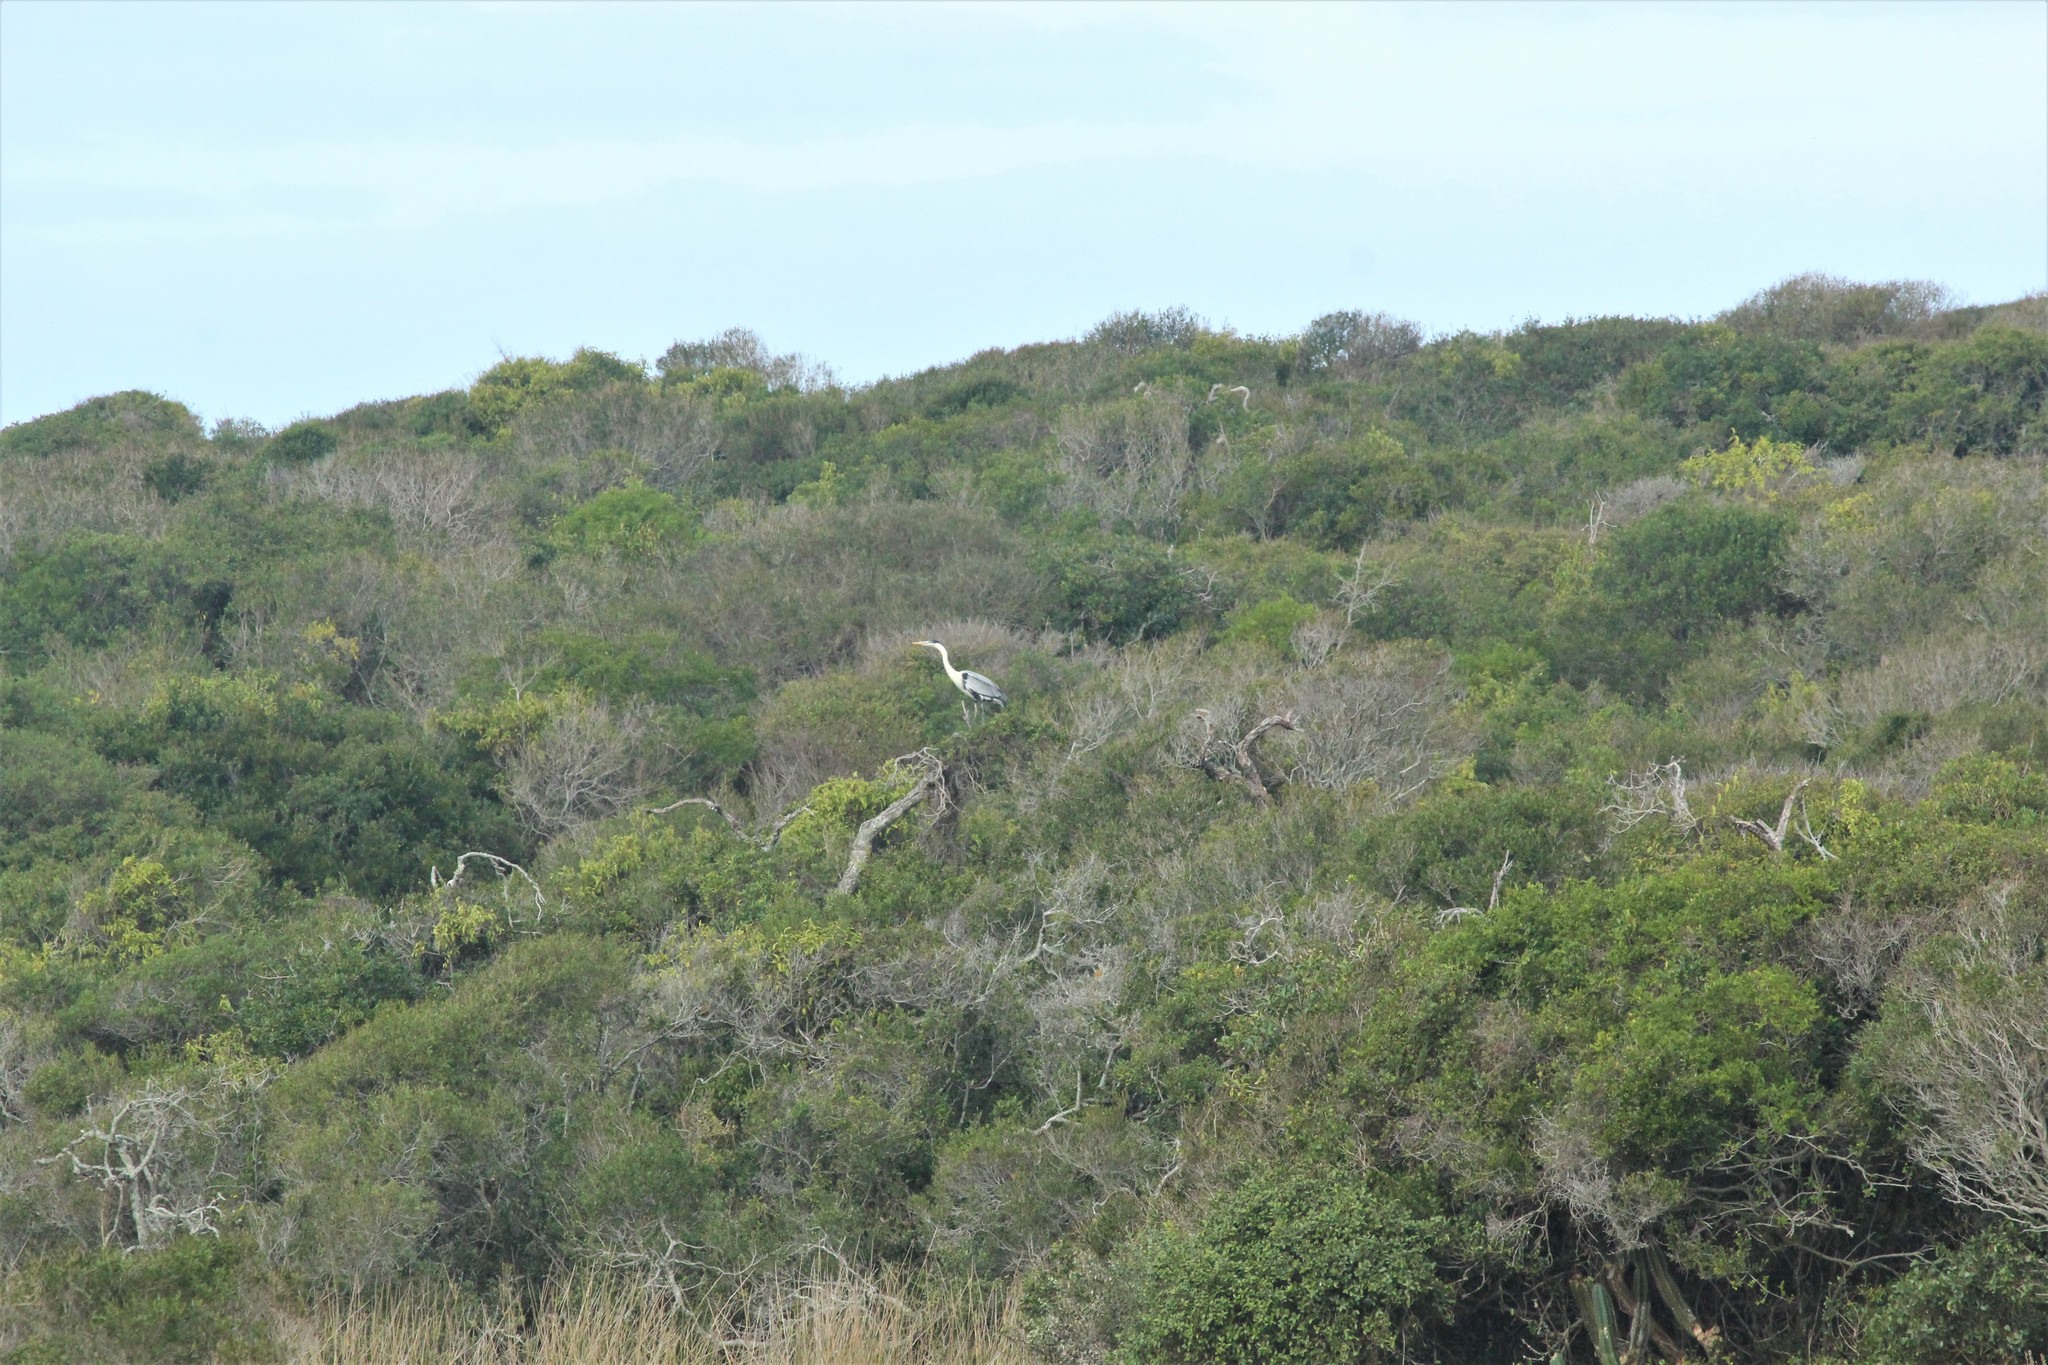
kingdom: Animalia
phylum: Chordata
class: Aves
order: Pelecaniformes
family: Ardeidae
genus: Ardea
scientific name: Ardea cocoi
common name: Cocoi heron
